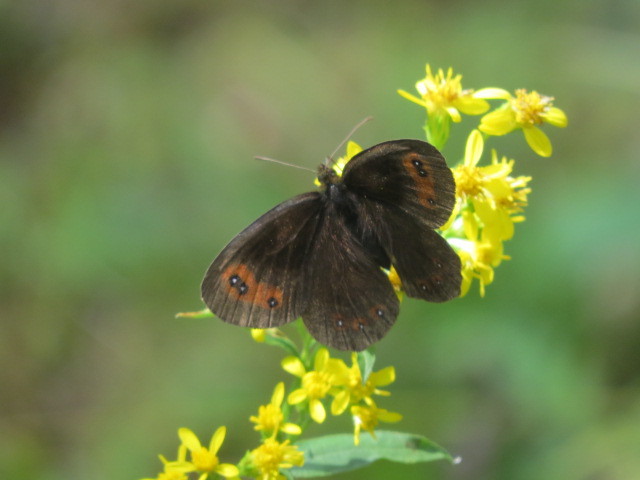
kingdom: Animalia
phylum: Arthropoda
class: Insecta
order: Lepidoptera
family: Nymphalidae
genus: Erebia
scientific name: Erebia aethiops
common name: Scotch argus
